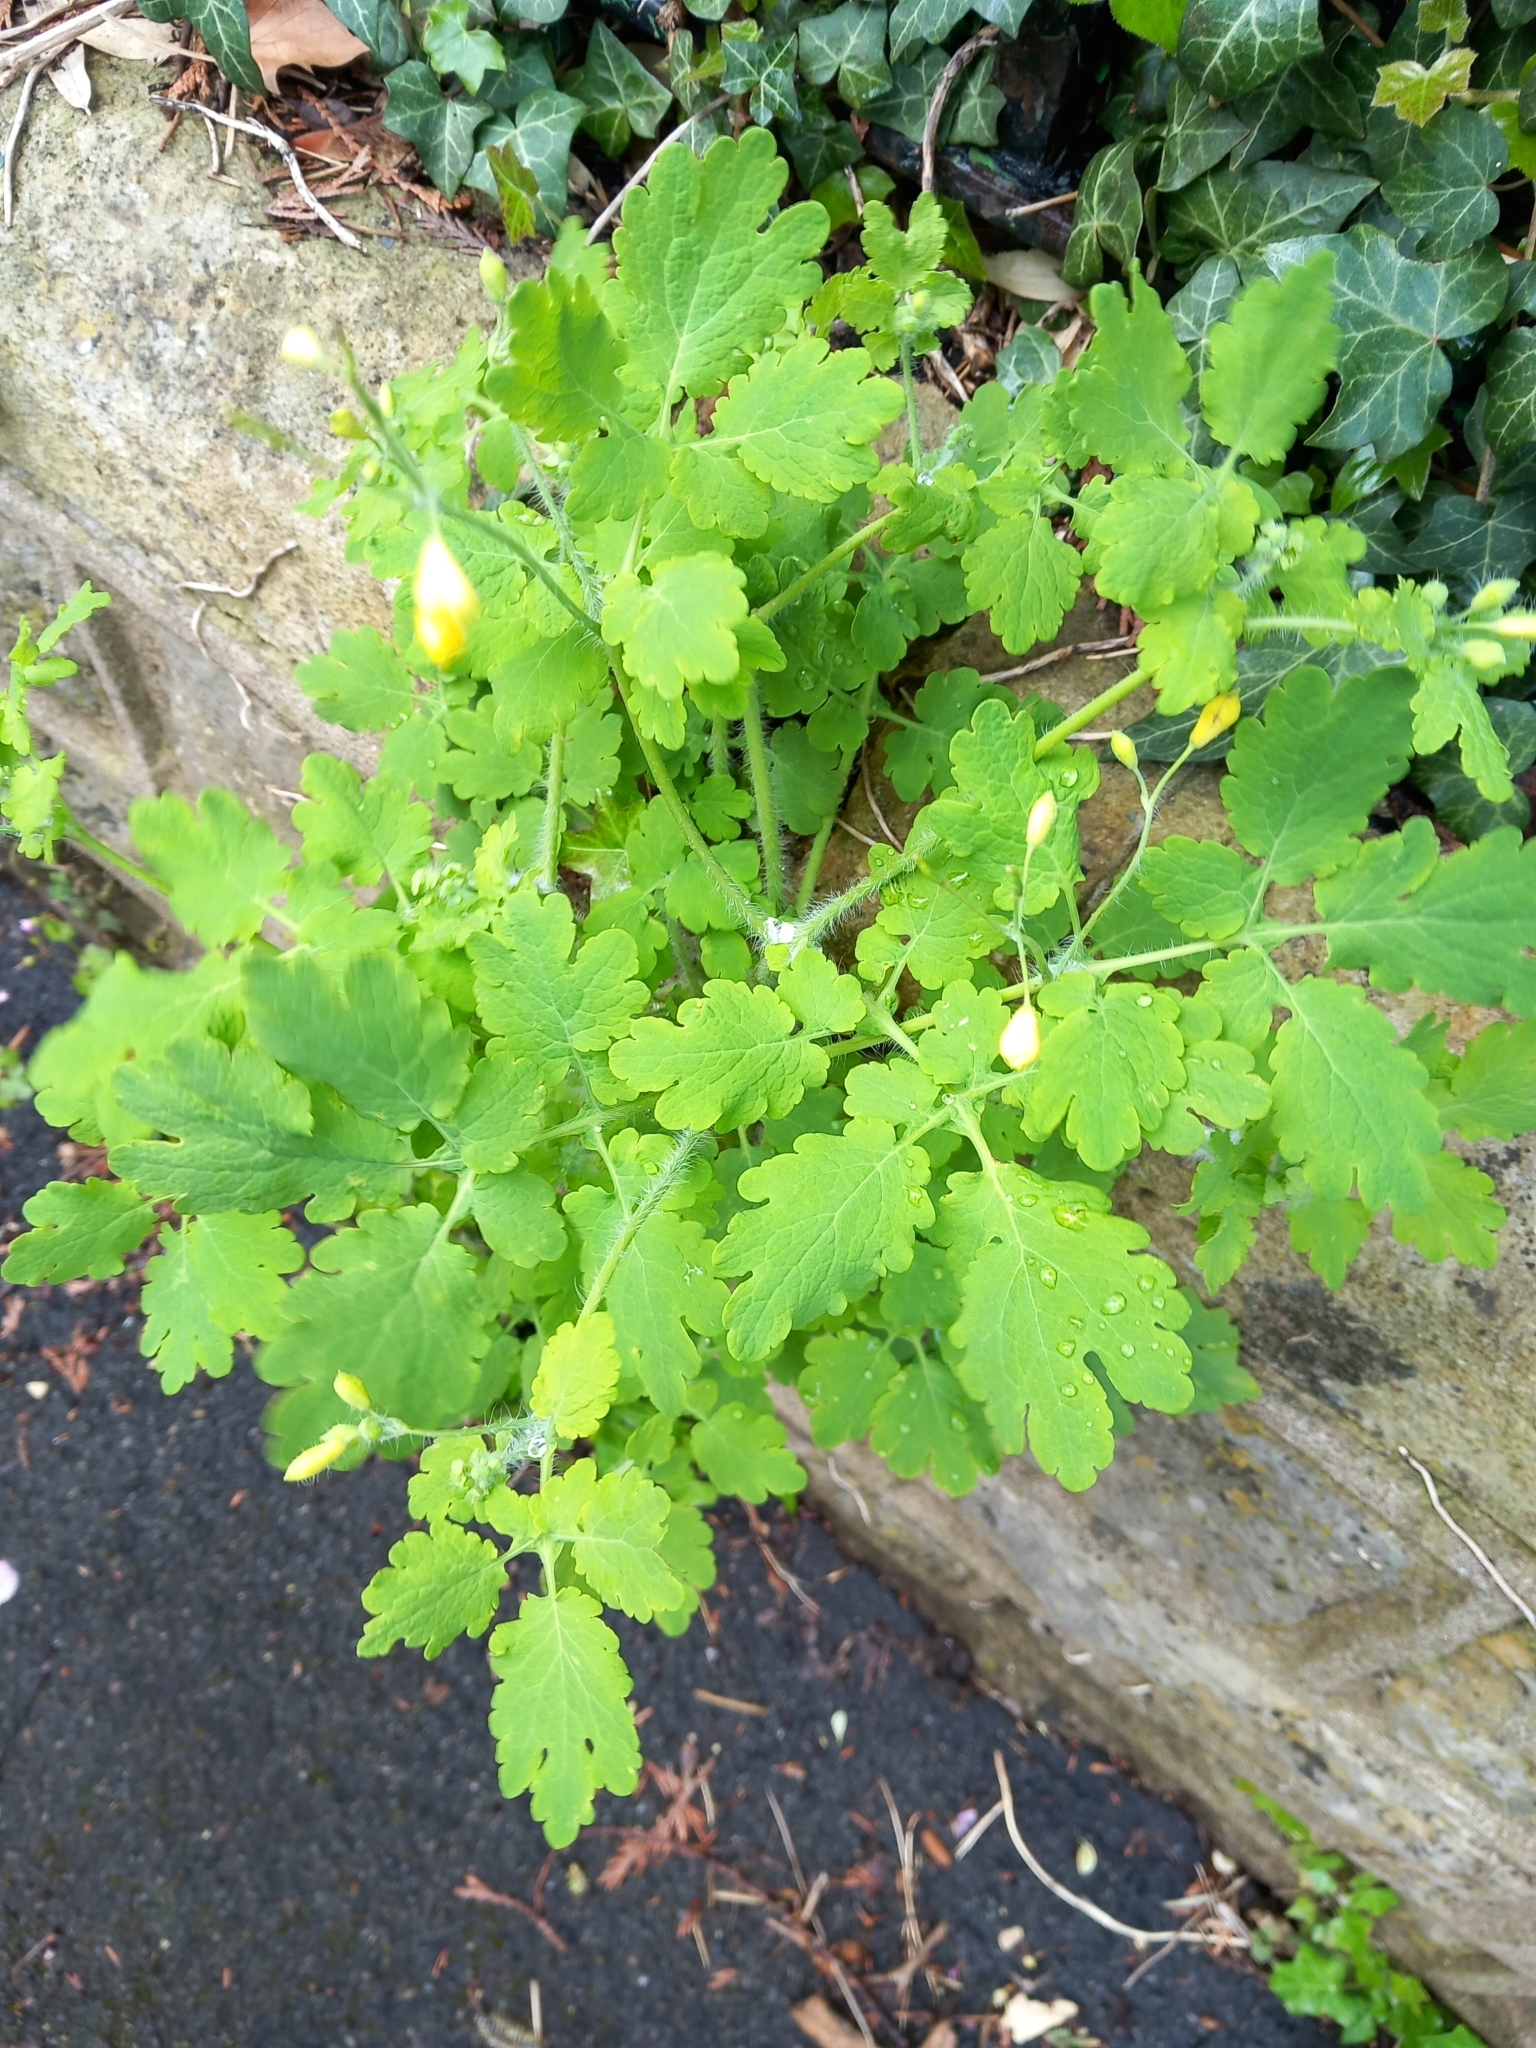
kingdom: Plantae
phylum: Tracheophyta
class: Magnoliopsida
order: Ranunculales
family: Papaveraceae
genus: Chelidonium
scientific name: Chelidonium majus
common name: Greater celandine
